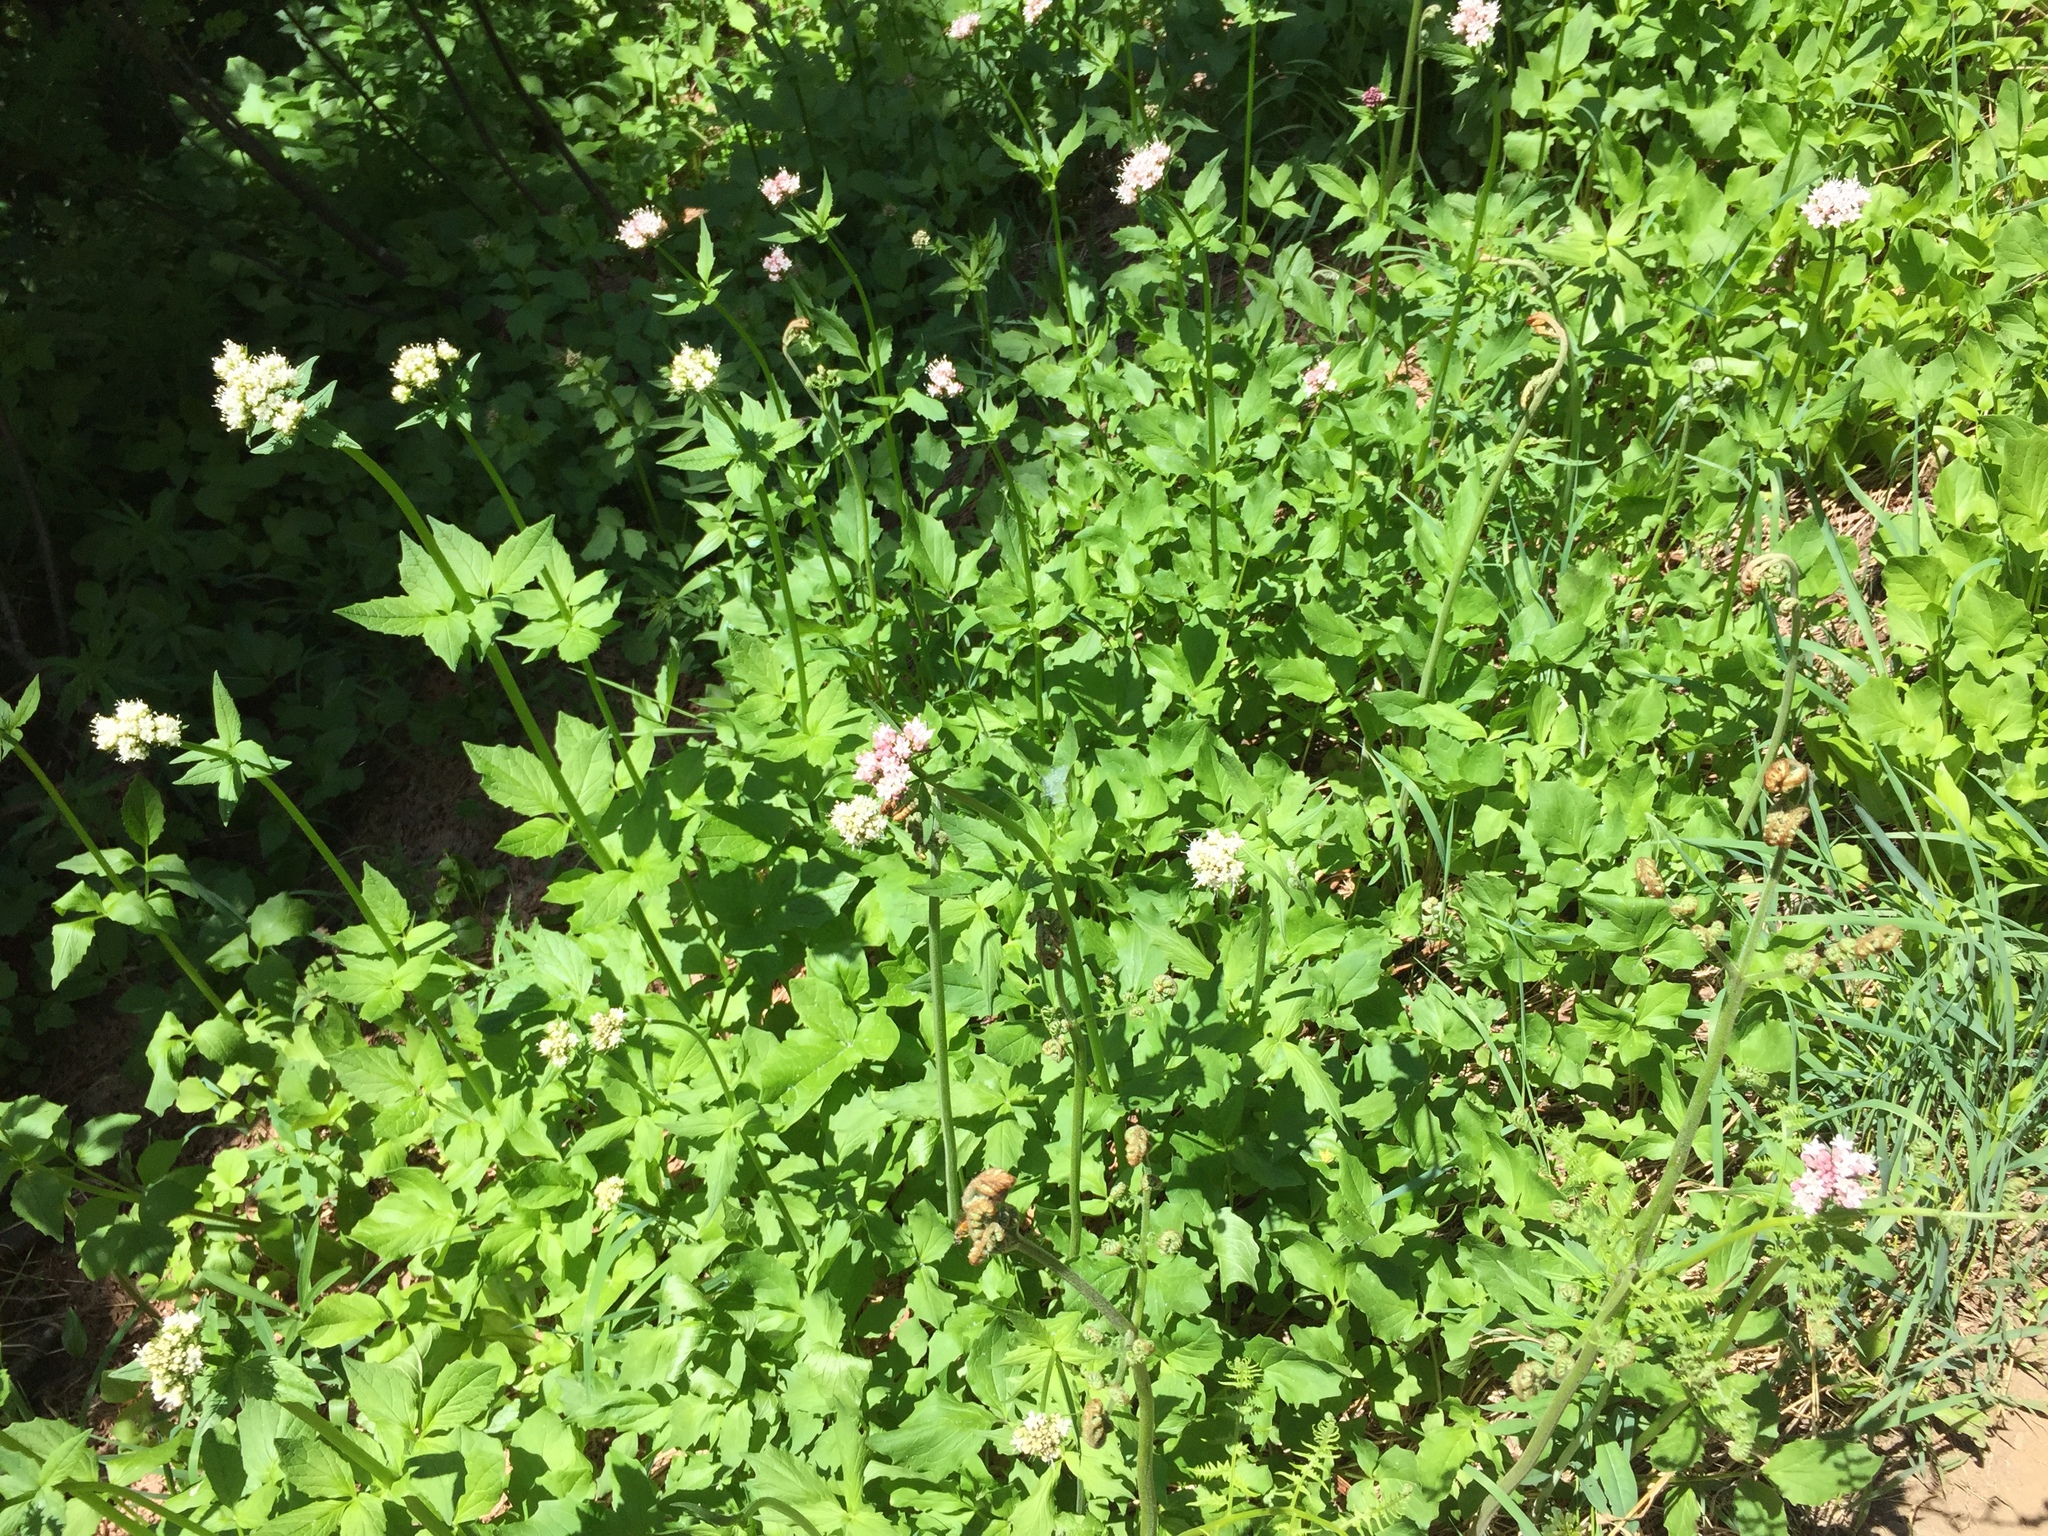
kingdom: Plantae
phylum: Tracheophyta
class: Magnoliopsida
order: Dipsacales
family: Caprifoliaceae
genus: Valeriana
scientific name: Valeriana sitchensis
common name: Pacific valerian
